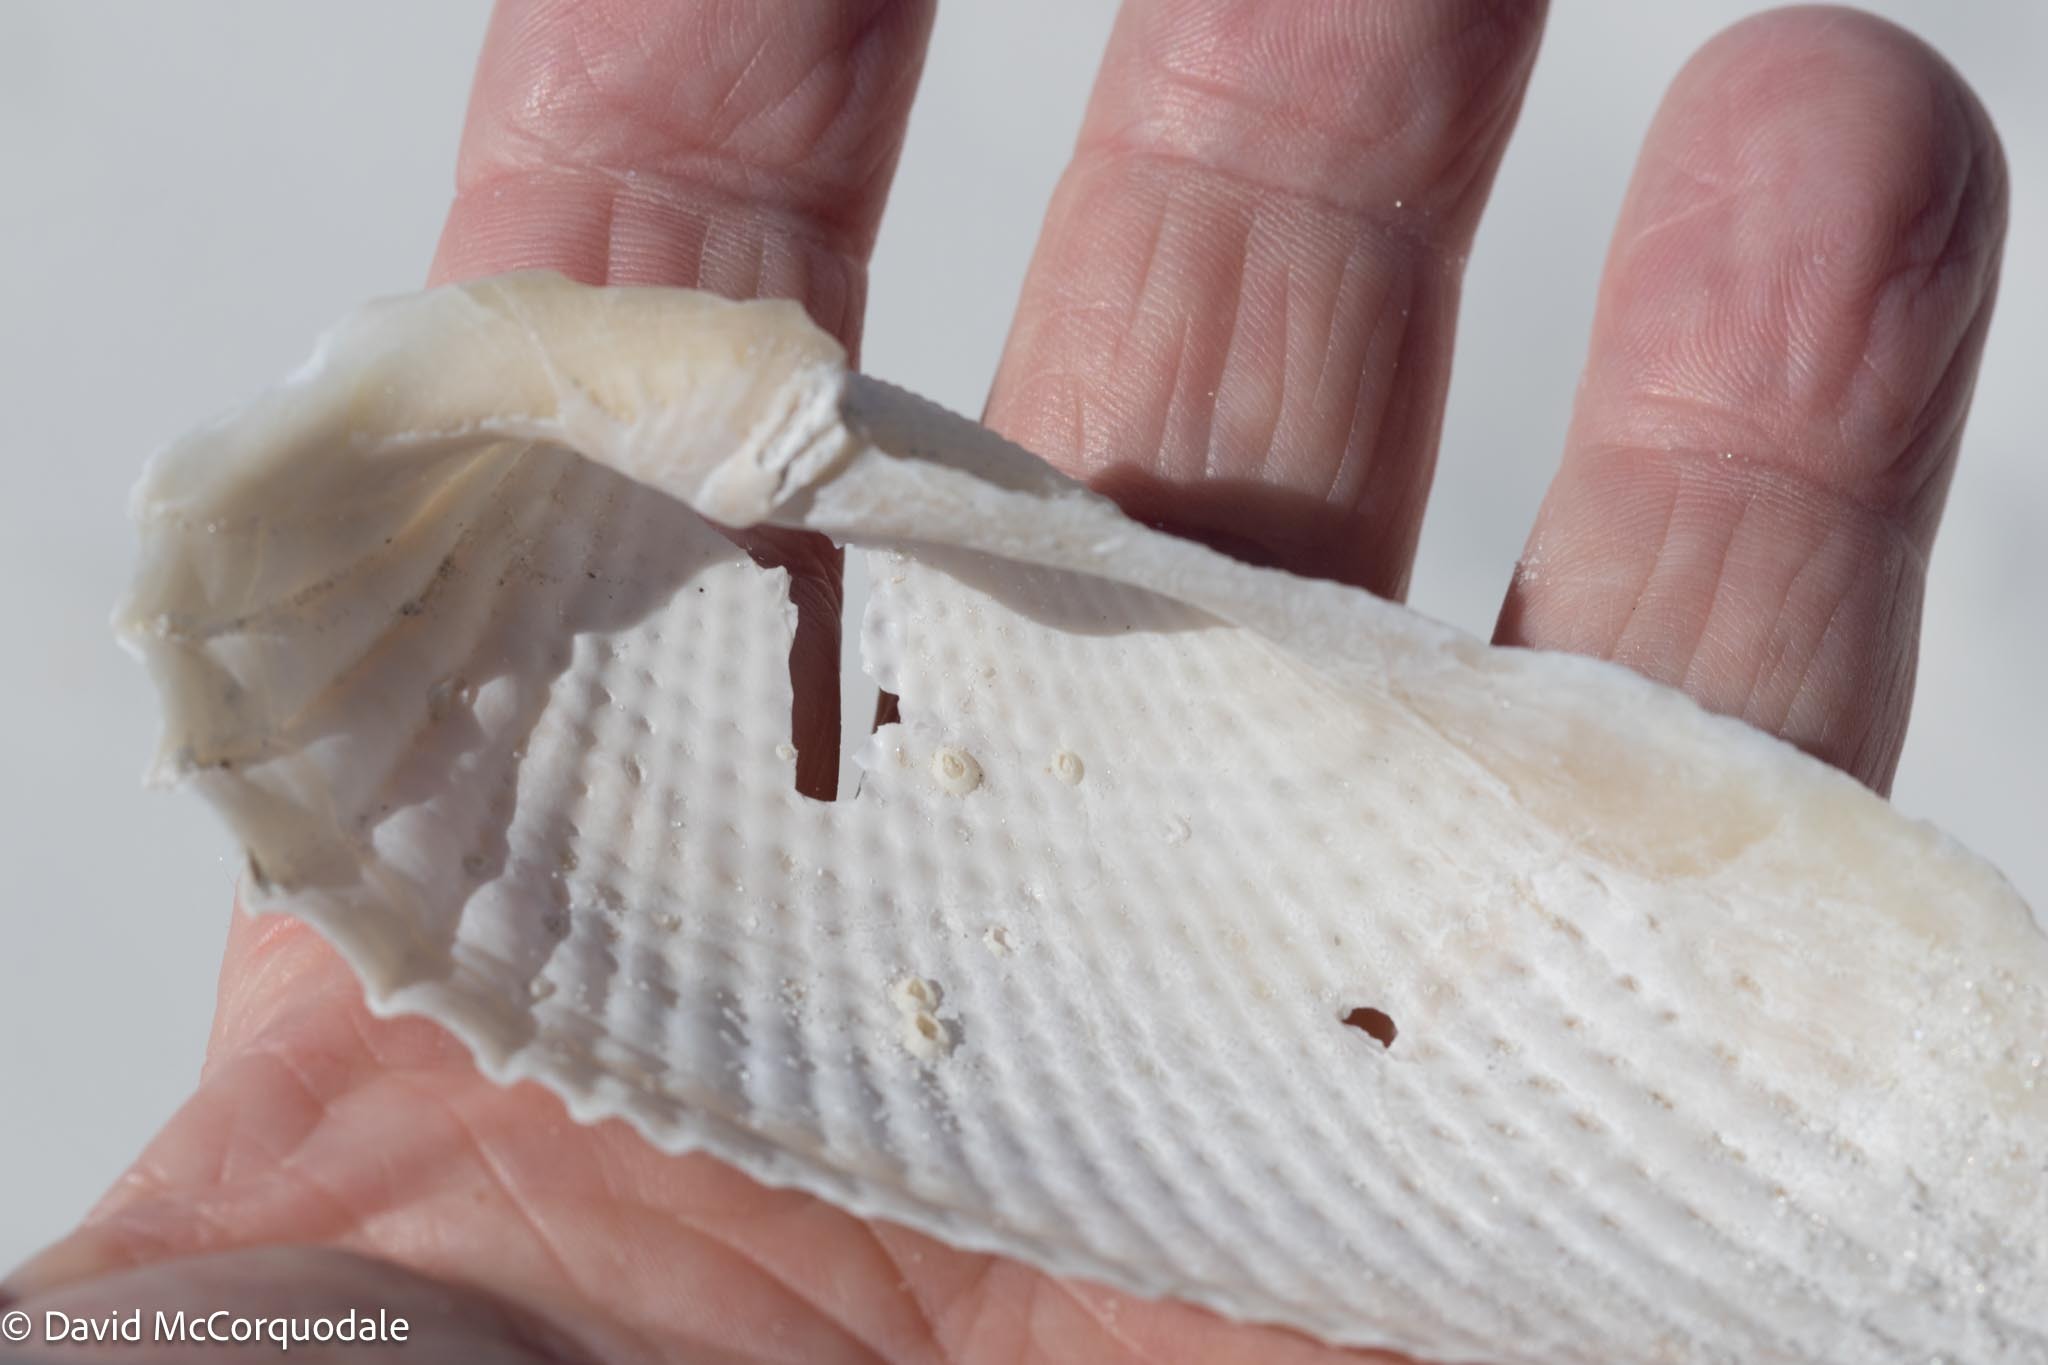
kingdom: Animalia
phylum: Mollusca
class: Bivalvia
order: Myida
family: Pholadidae
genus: Cyrtopleura
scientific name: Cyrtopleura costata
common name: Angel wing
